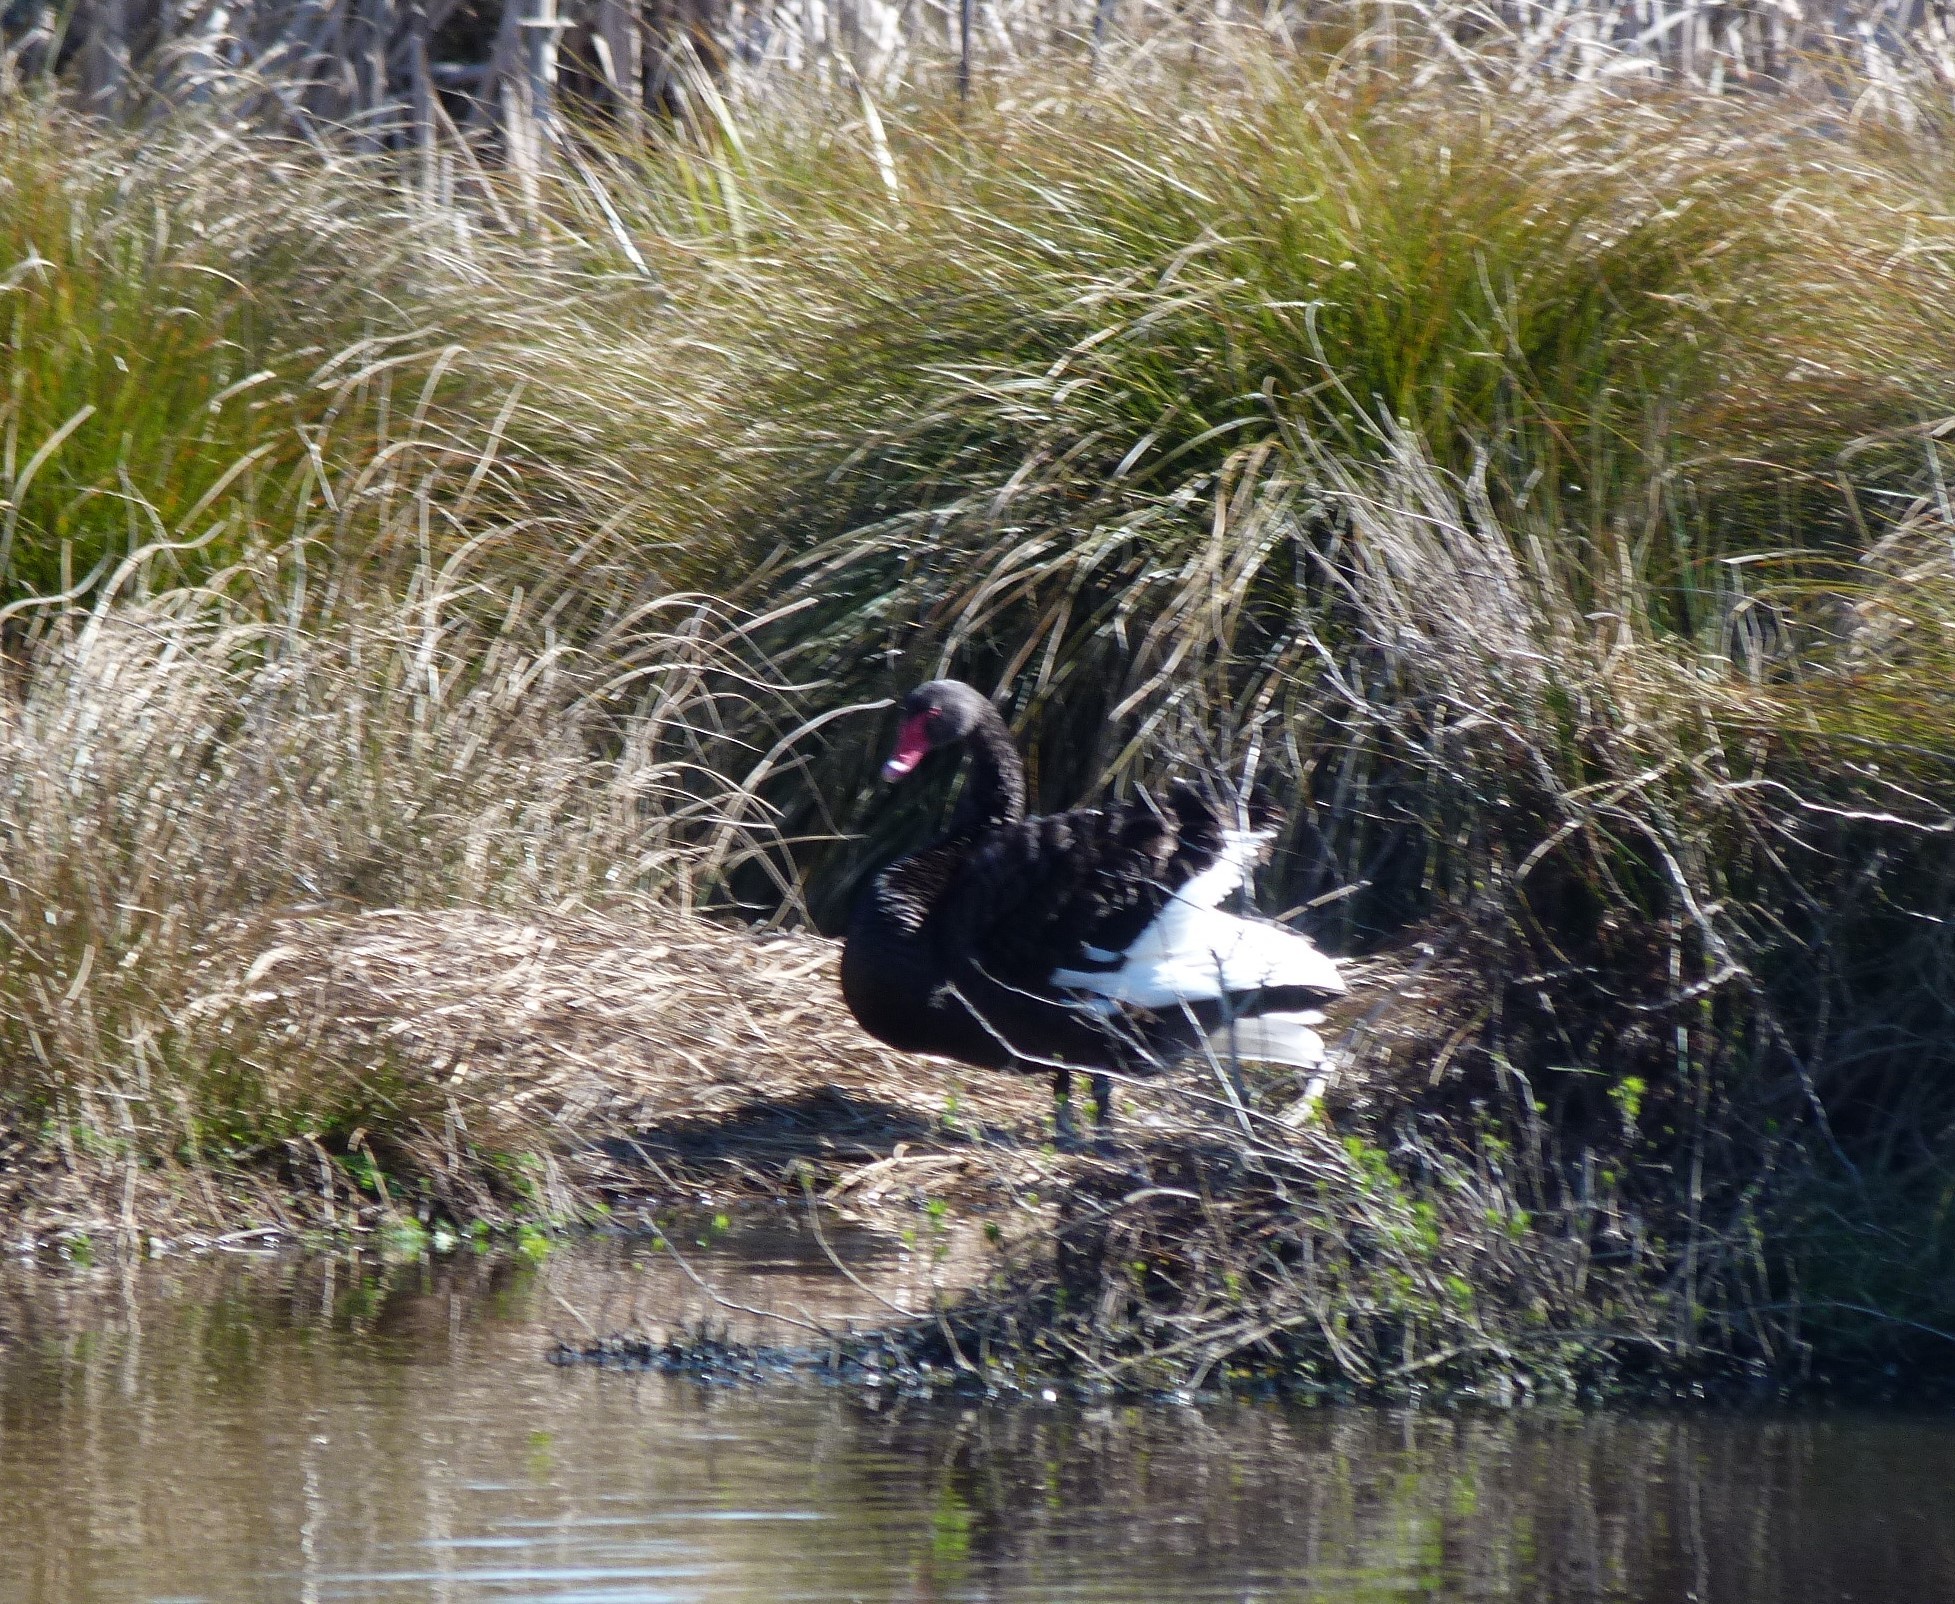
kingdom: Animalia
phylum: Chordata
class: Aves
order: Anseriformes
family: Anatidae
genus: Cygnus
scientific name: Cygnus atratus
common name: Black swan
